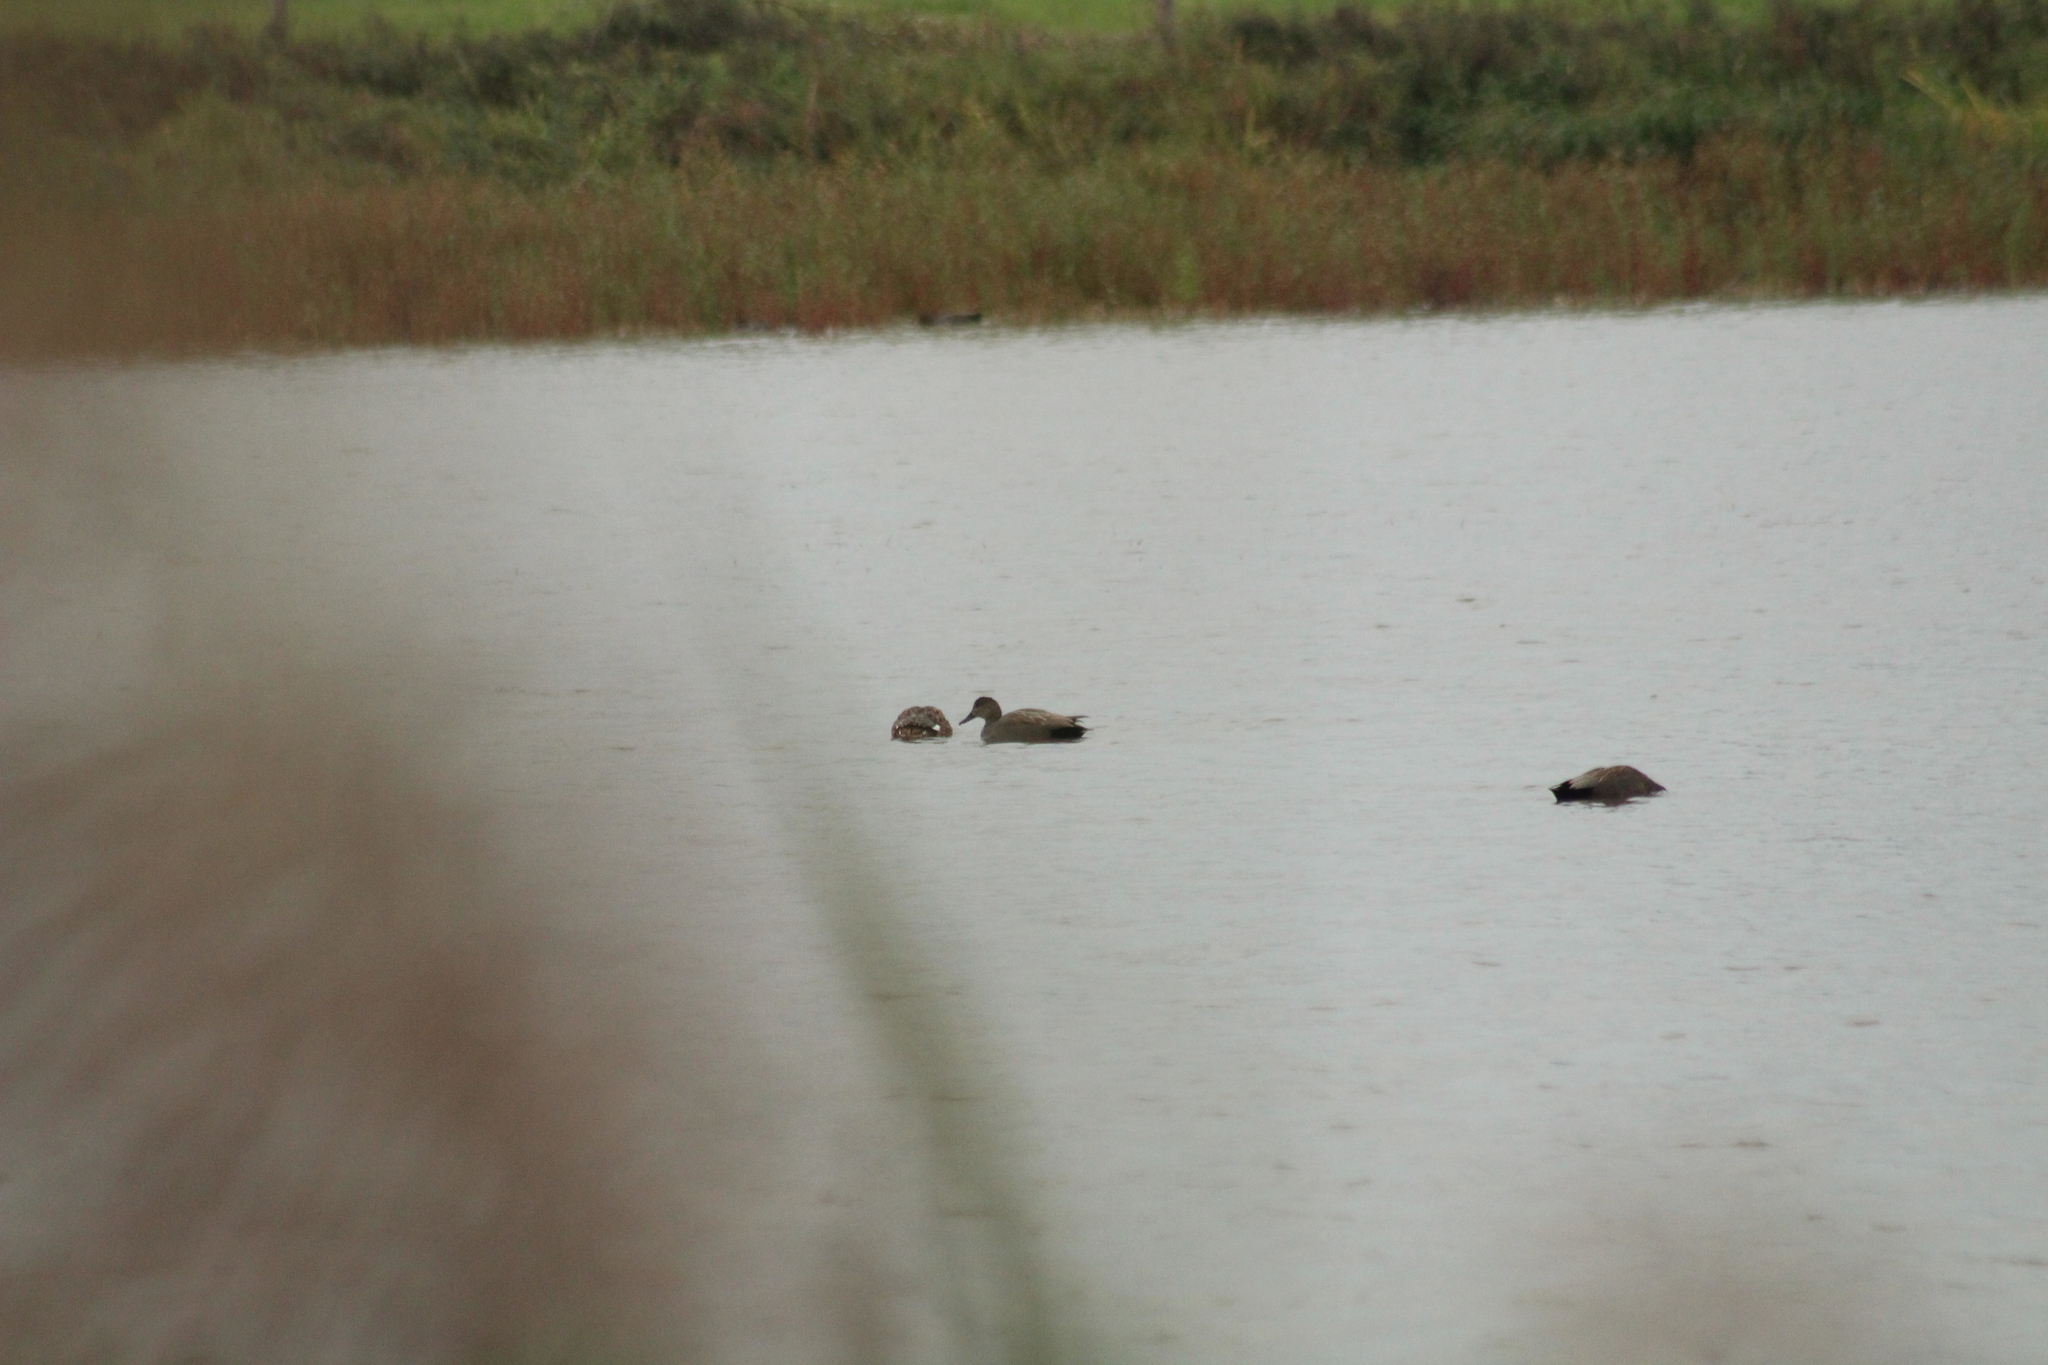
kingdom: Animalia
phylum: Chordata
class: Aves
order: Anseriformes
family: Anatidae
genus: Mareca
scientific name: Mareca strepera
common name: Gadwall
